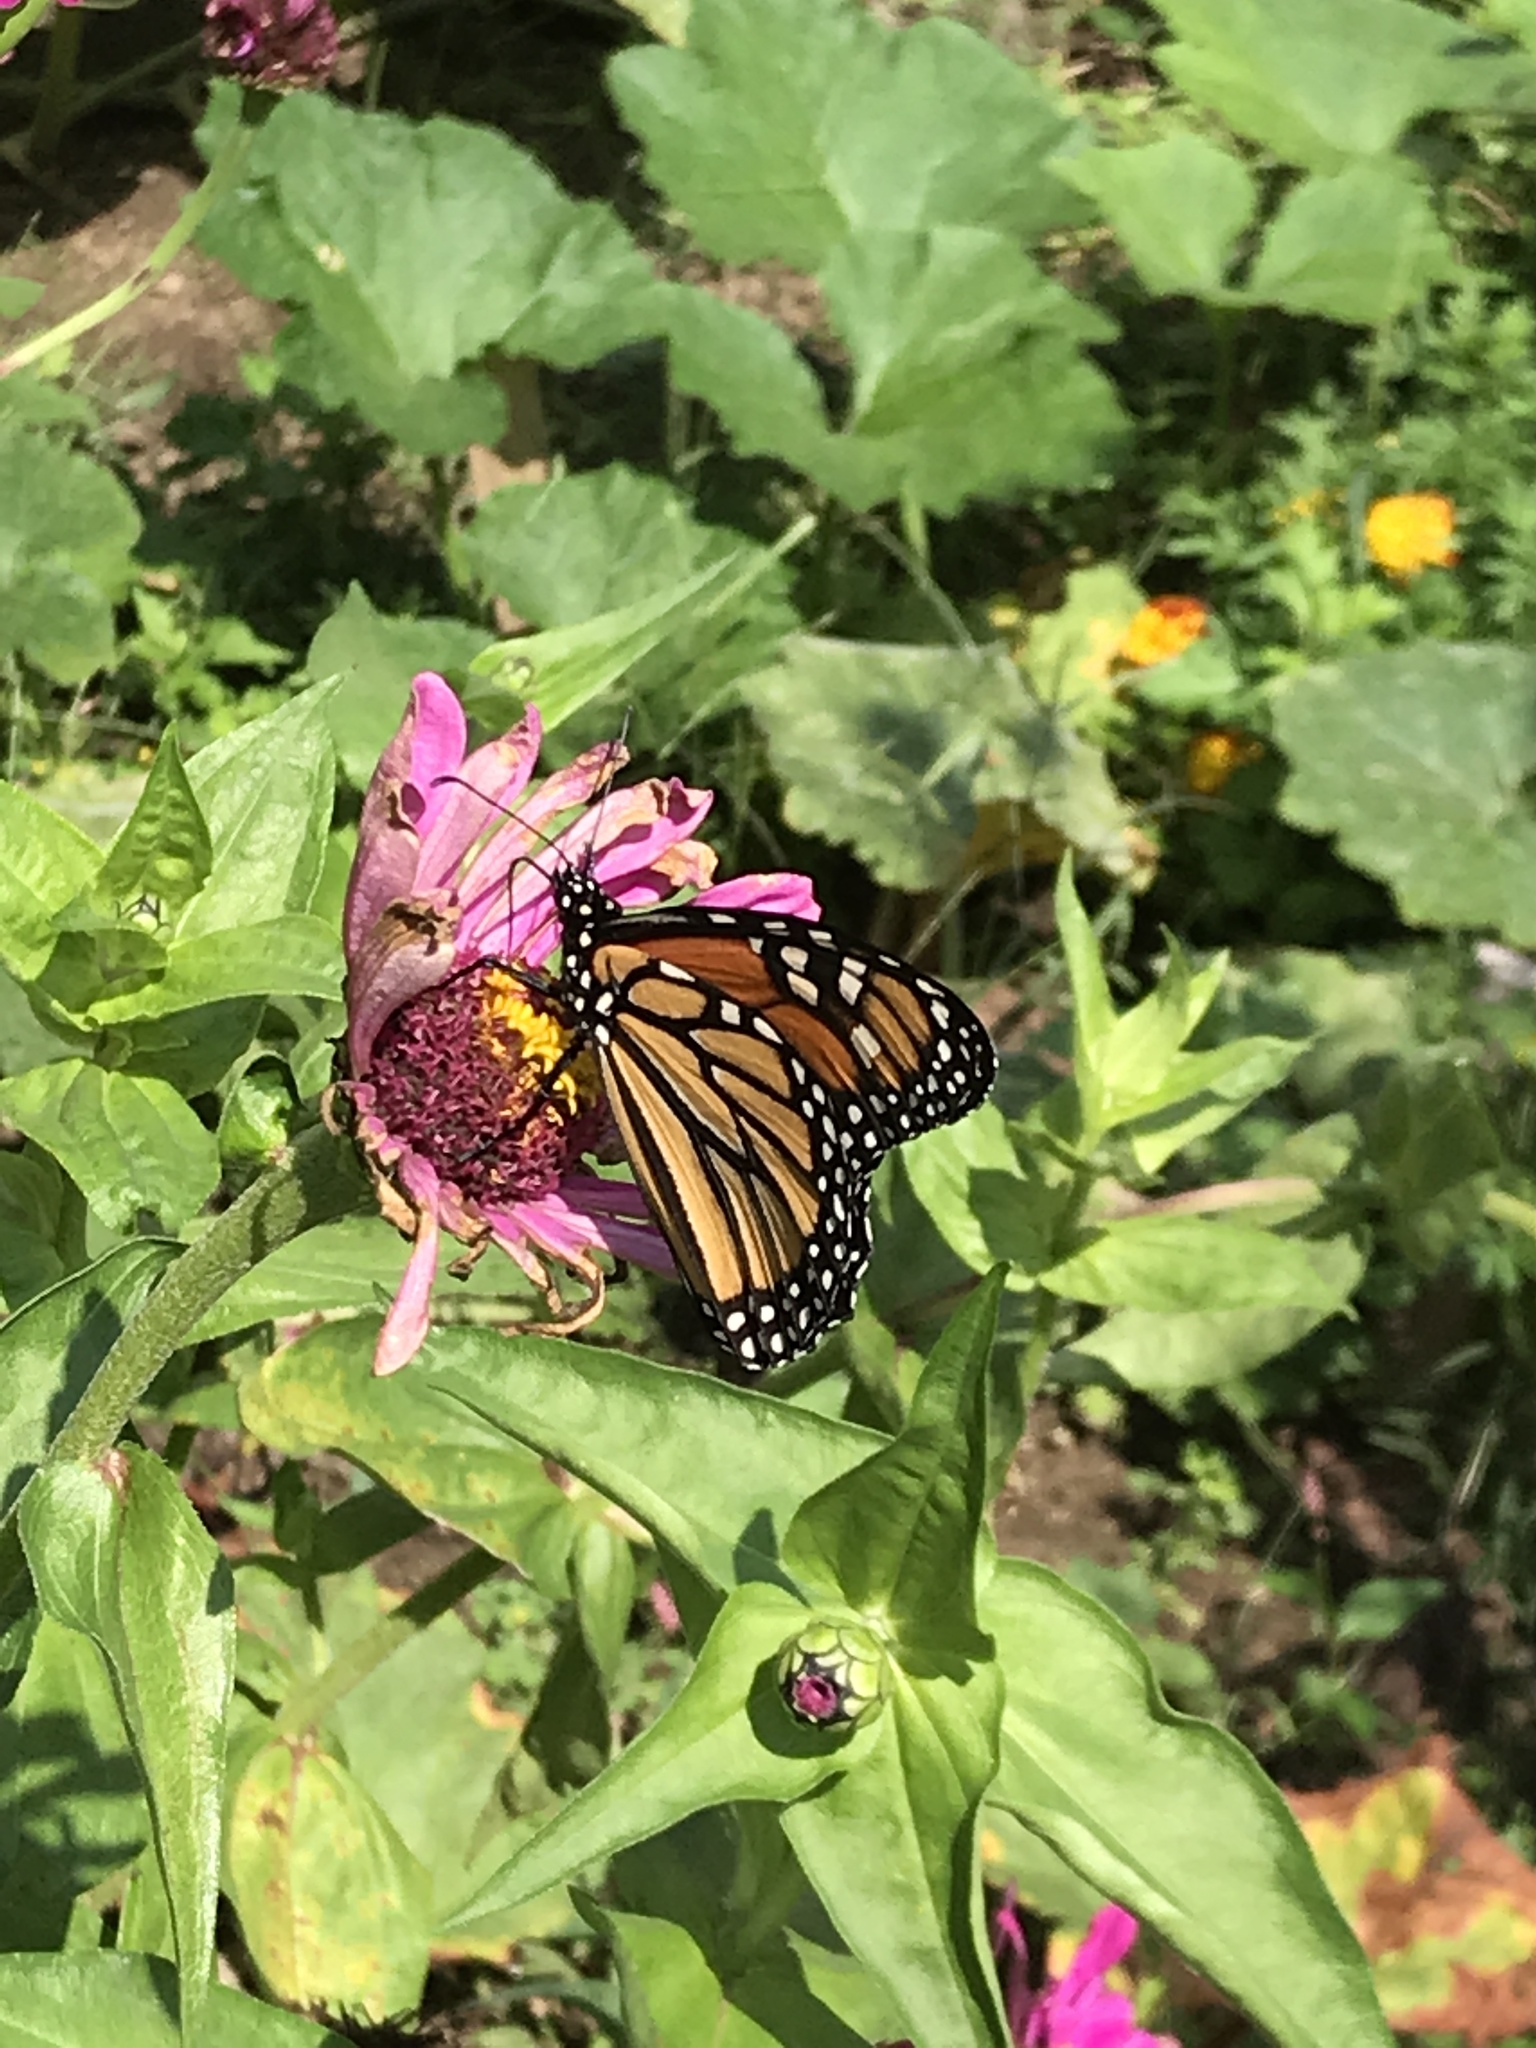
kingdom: Animalia
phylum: Arthropoda
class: Insecta
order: Lepidoptera
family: Nymphalidae
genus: Danaus
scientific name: Danaus plexippus
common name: Monarch
